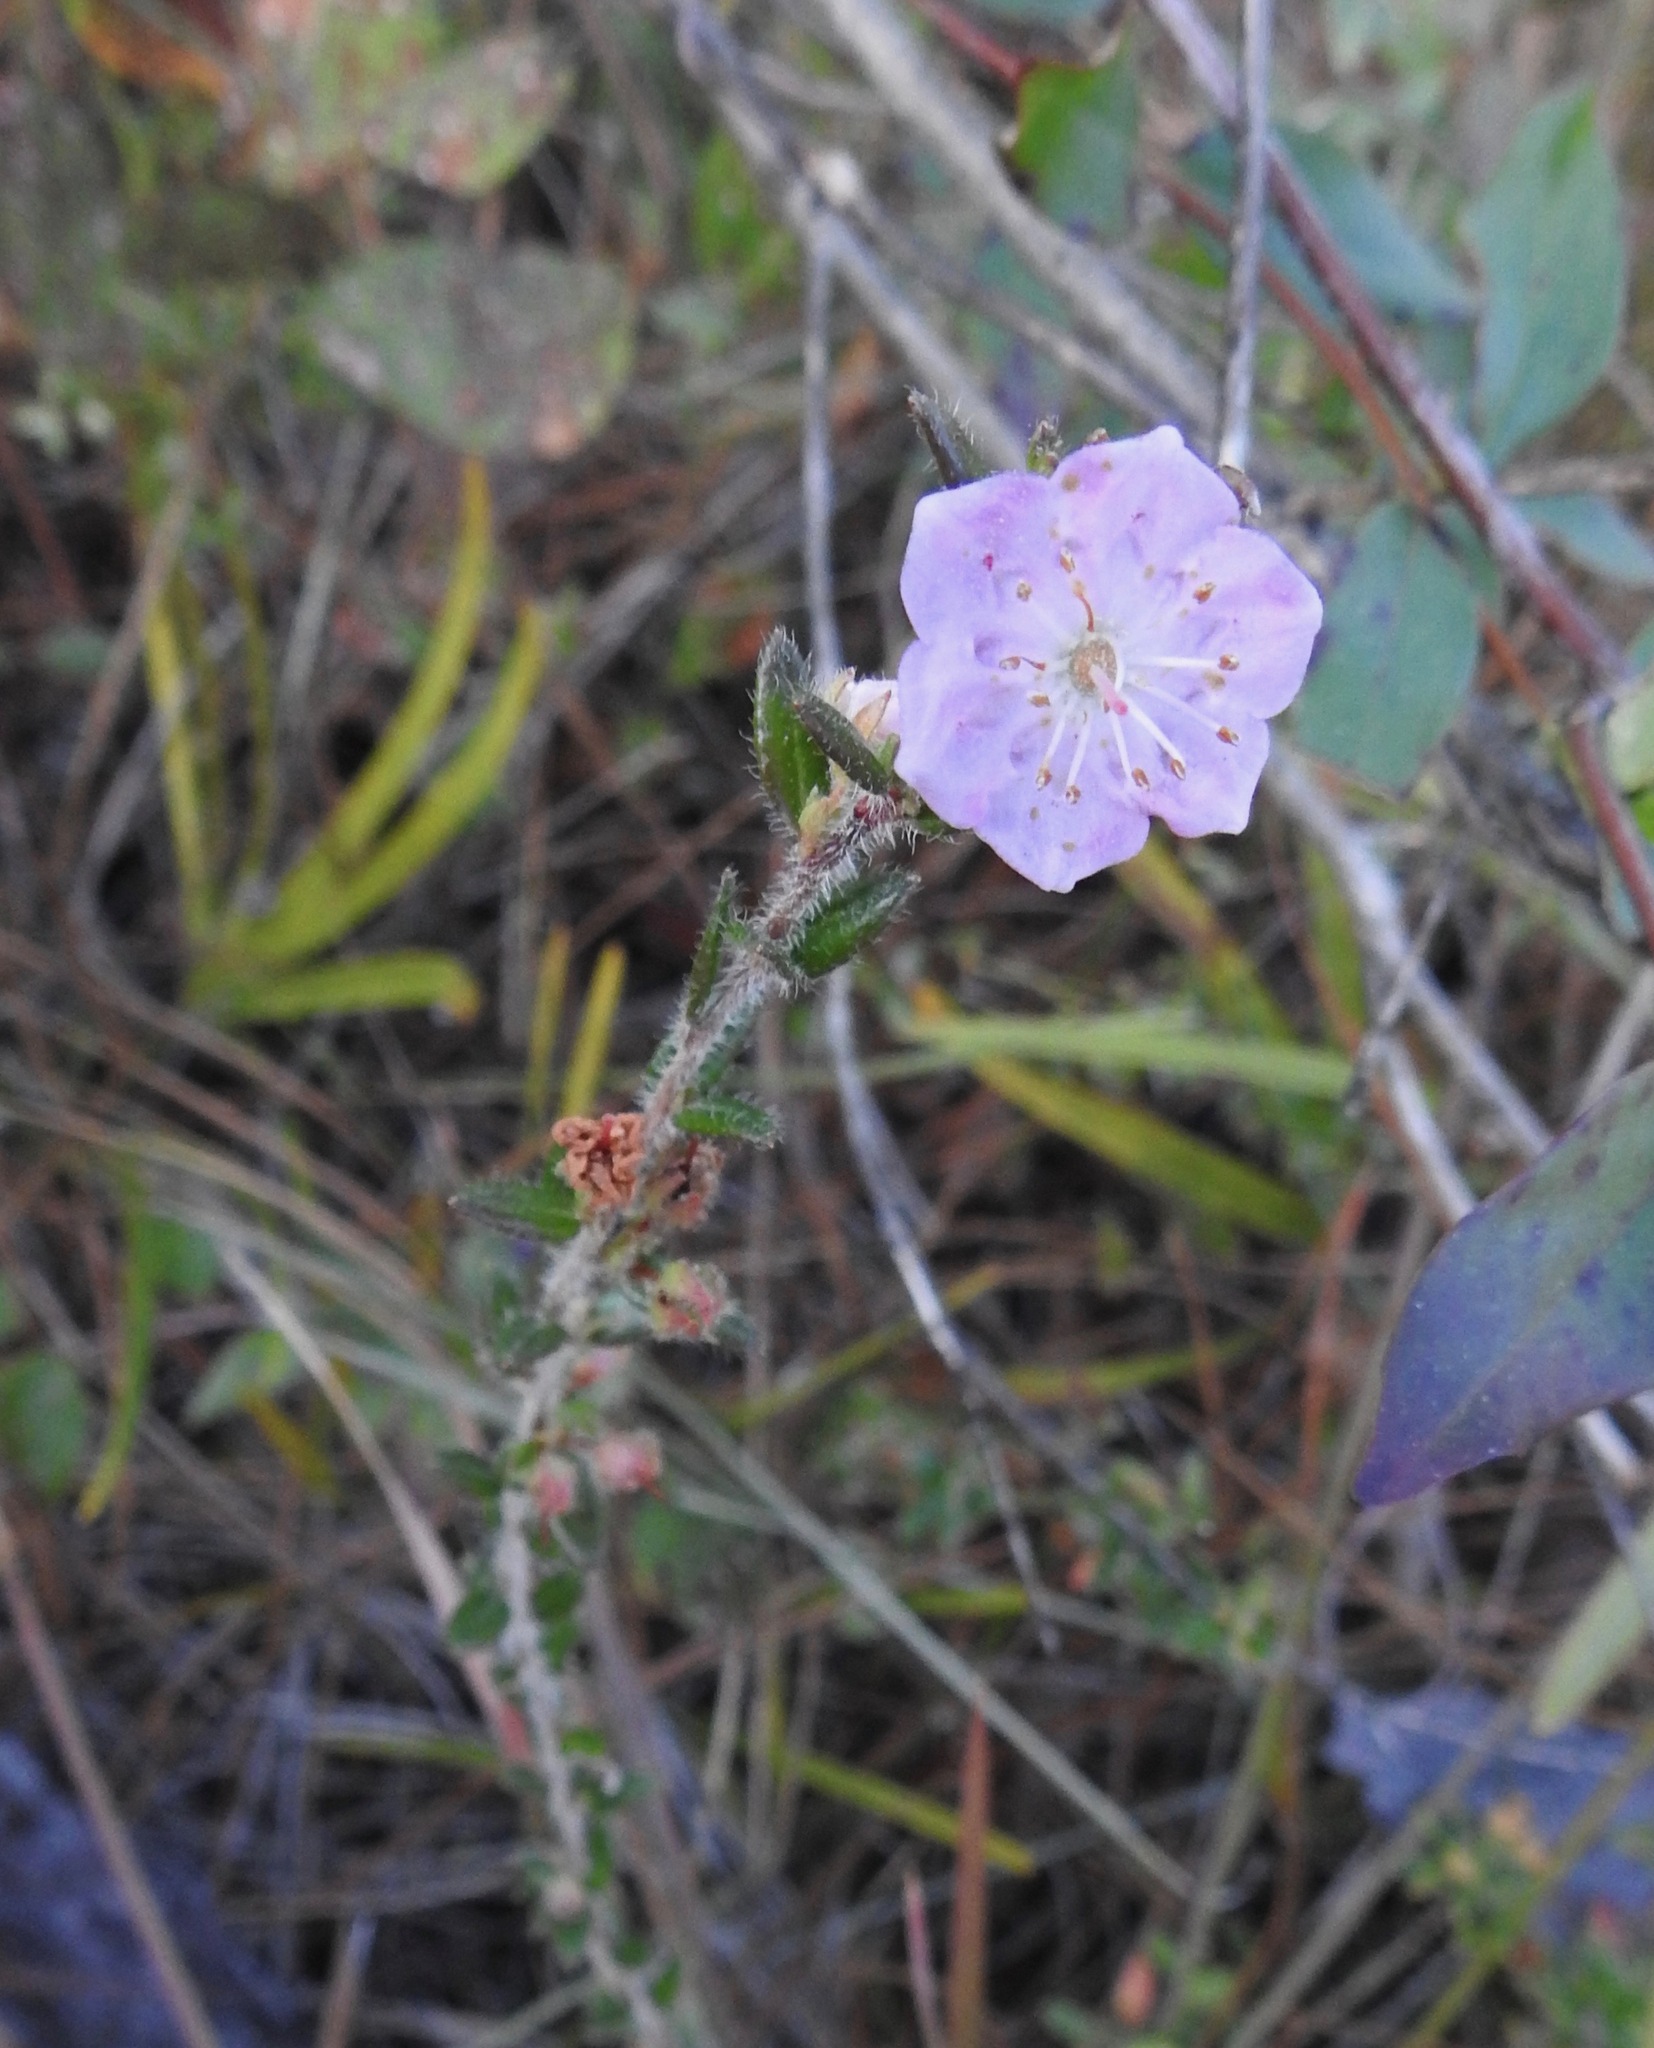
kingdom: Plantae
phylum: Tracheophyta
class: Magnoliopsida
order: Ericales
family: Ericaceae
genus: Kalmia
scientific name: Kalmia hirsuta
